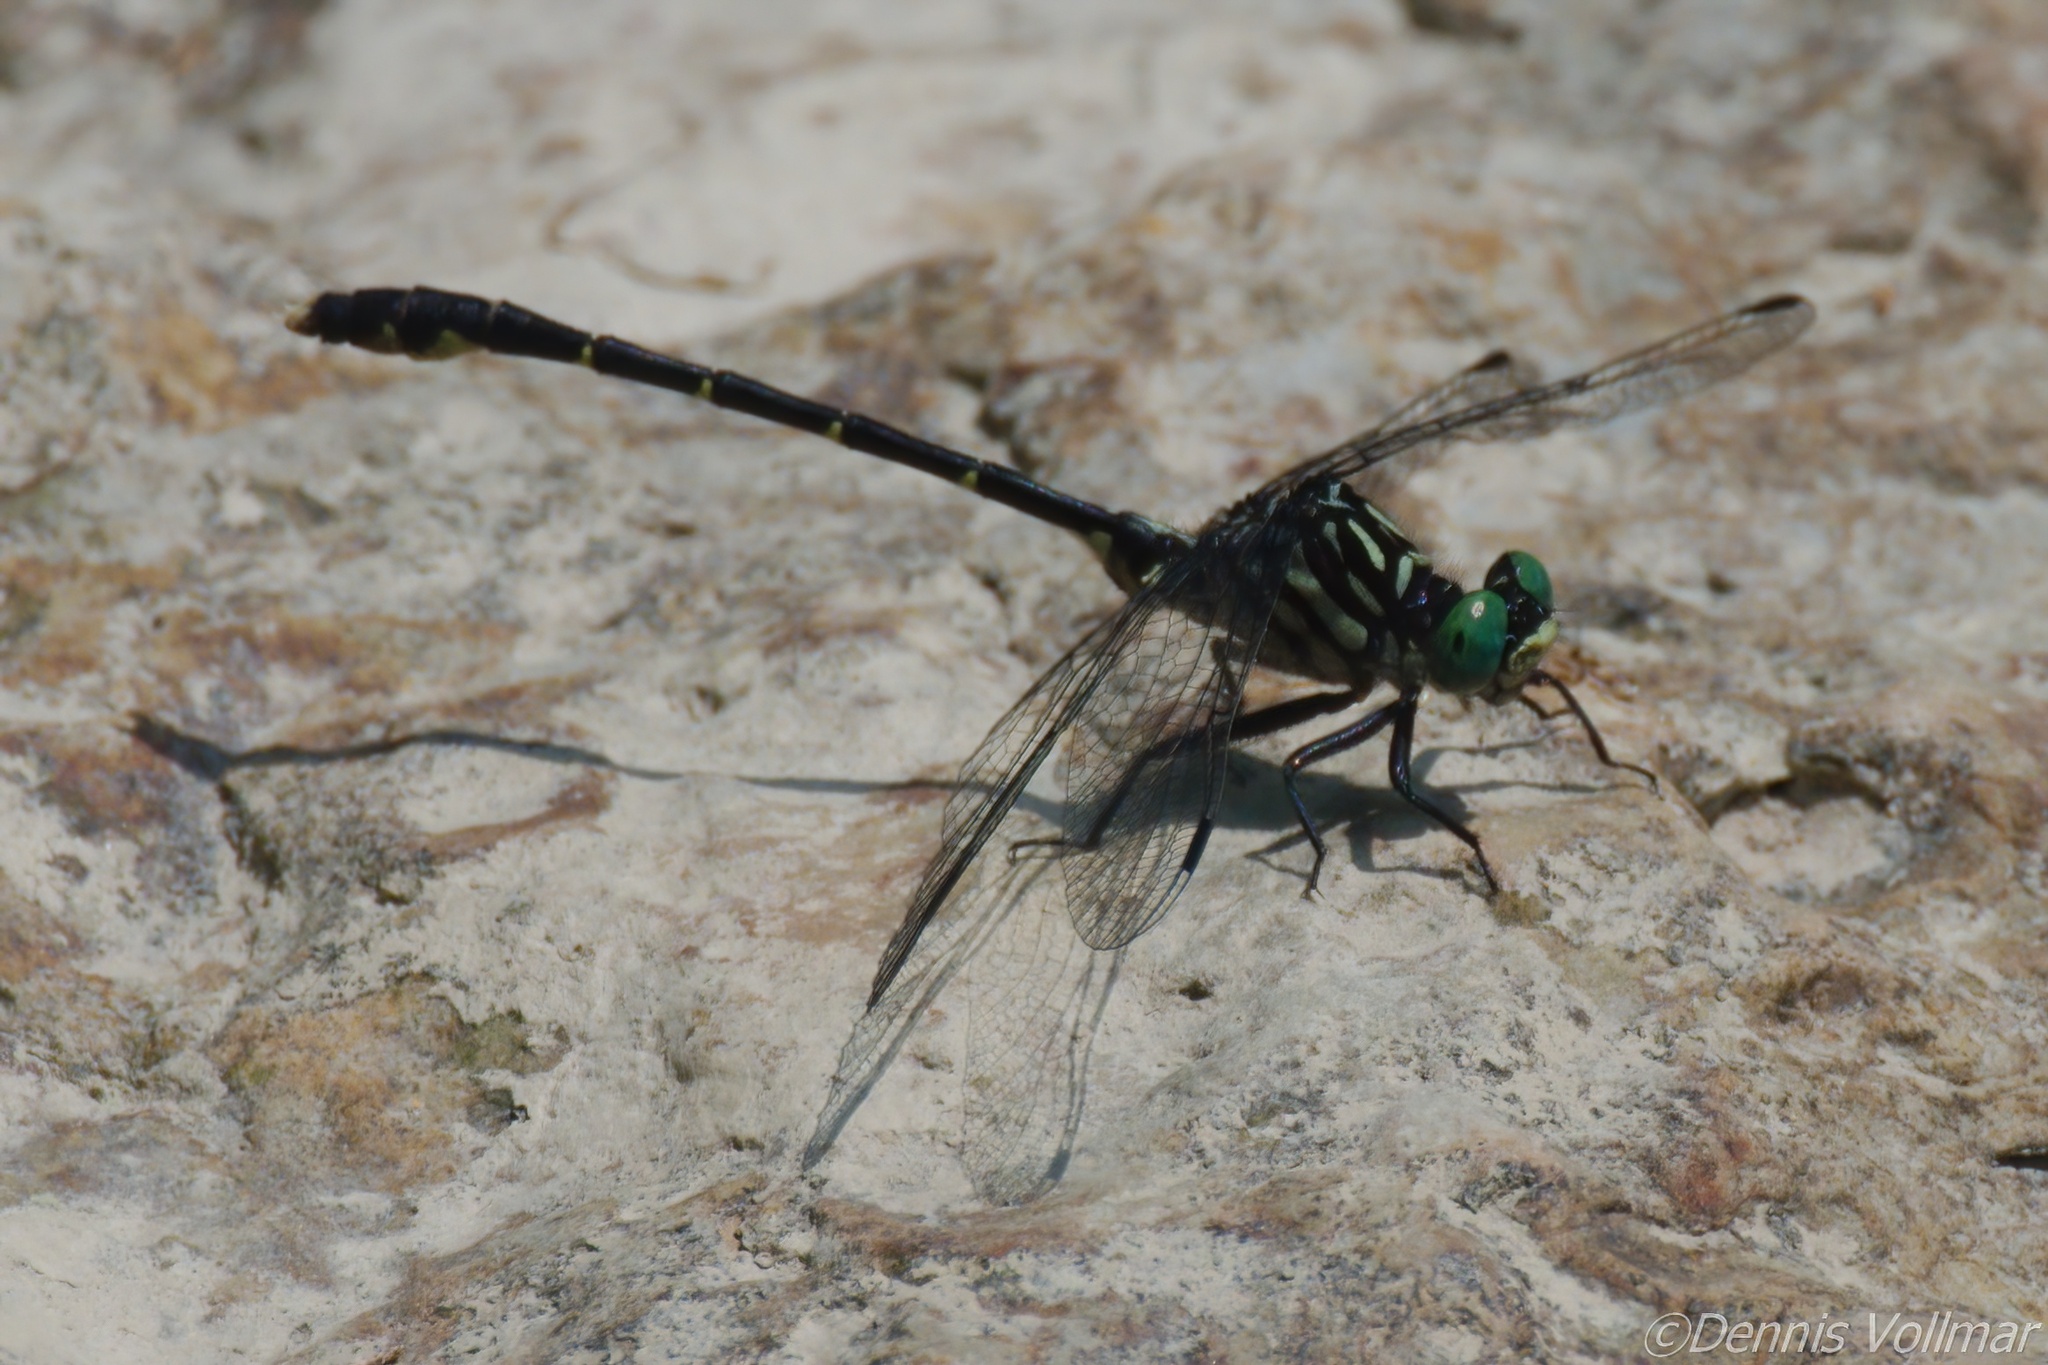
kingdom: Animalia
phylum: Arthropoda
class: Insecta
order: Odonata
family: Gomphidae
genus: Stylogomphus
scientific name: Stylogomphus albistylus
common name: Eastern least clubtail
